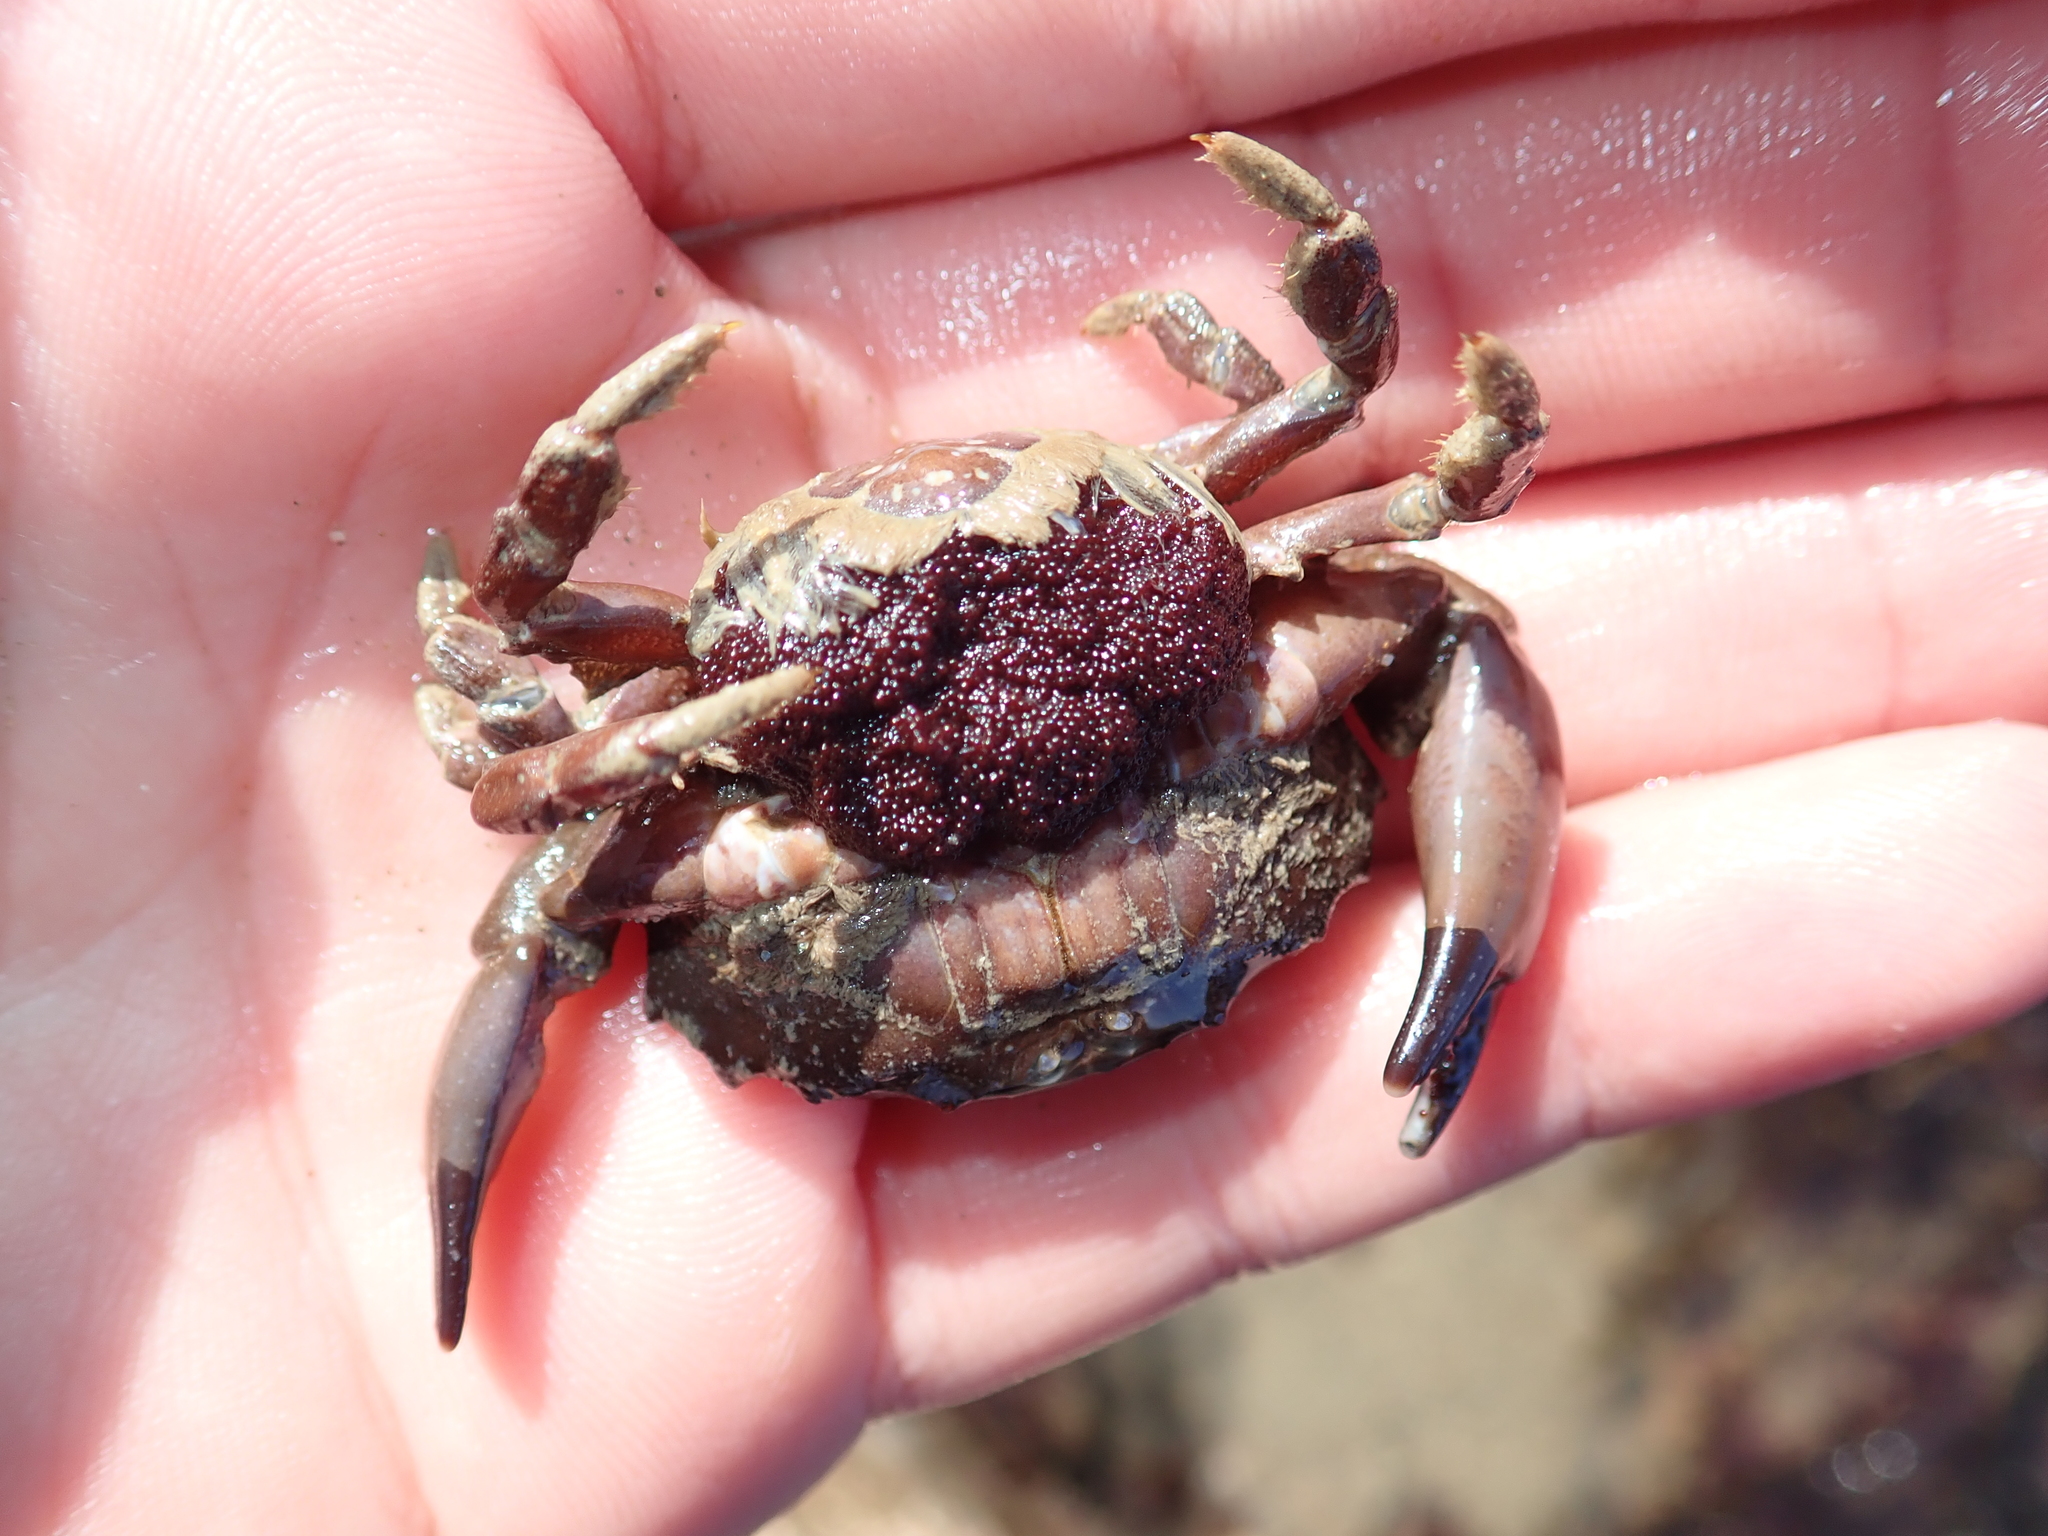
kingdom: Animalia
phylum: Arthropoda
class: Malacostraca
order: Decapoda
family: Xanthidae
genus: Xantho
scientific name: Xantho hydrophilus
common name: Montagu's crab
